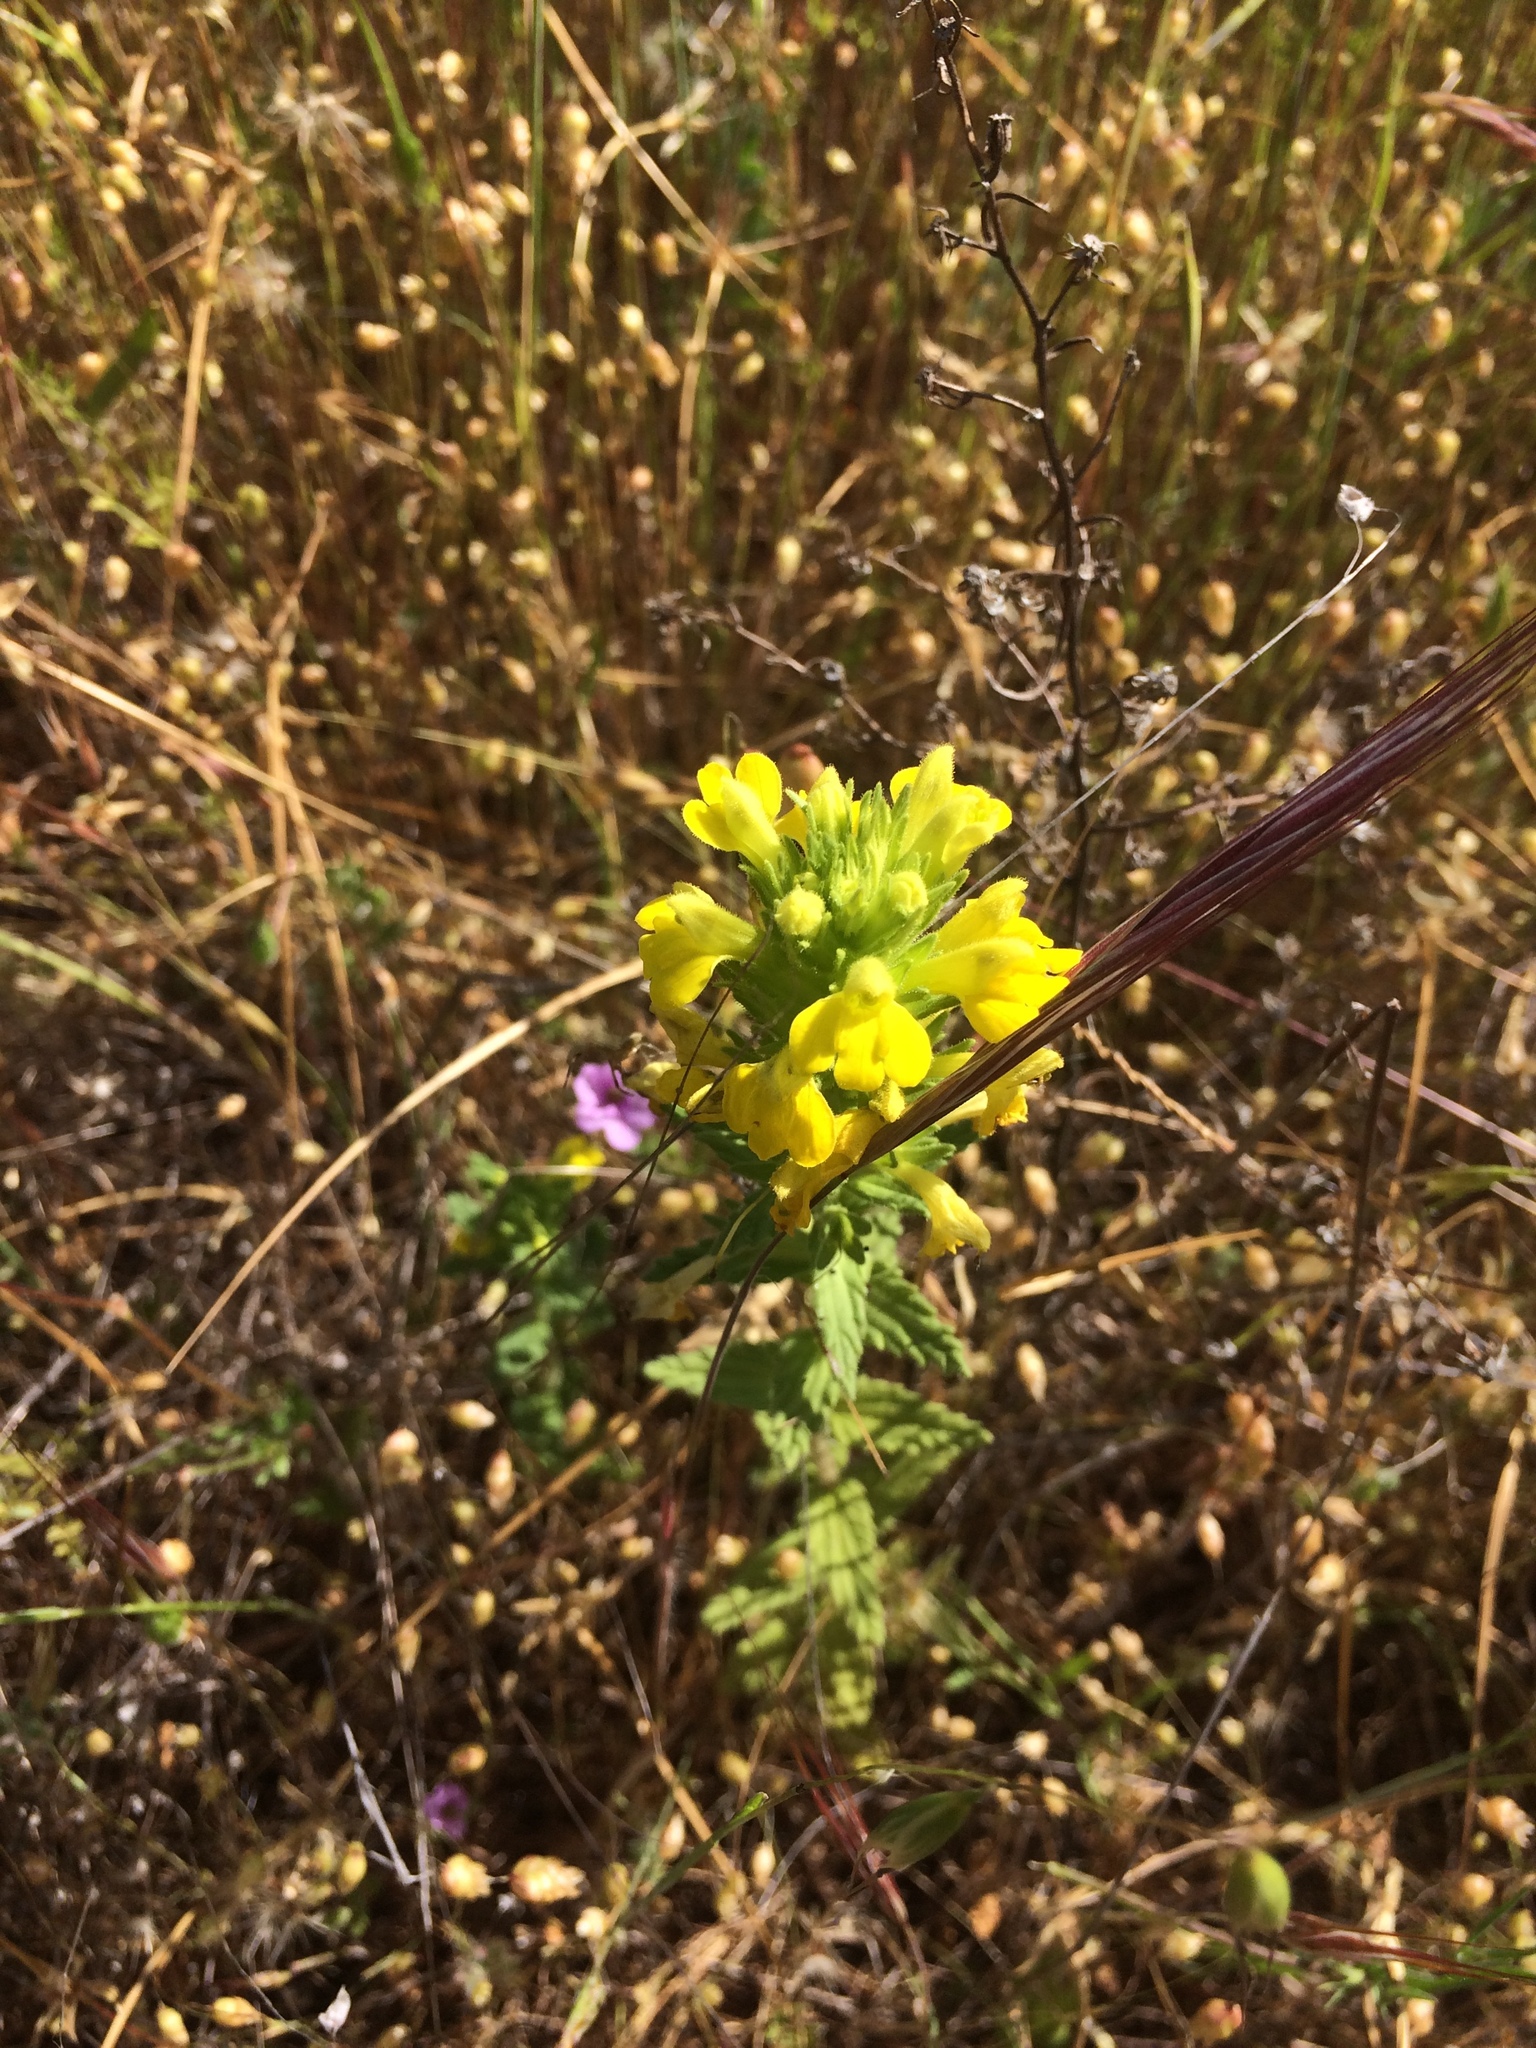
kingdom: Plantae
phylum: Tracheophyta
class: Magnoliopsida
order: Lamiales
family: Orobanchaceae
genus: Bellardia
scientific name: Bellardia viscosa
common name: Sticky parentucellia
